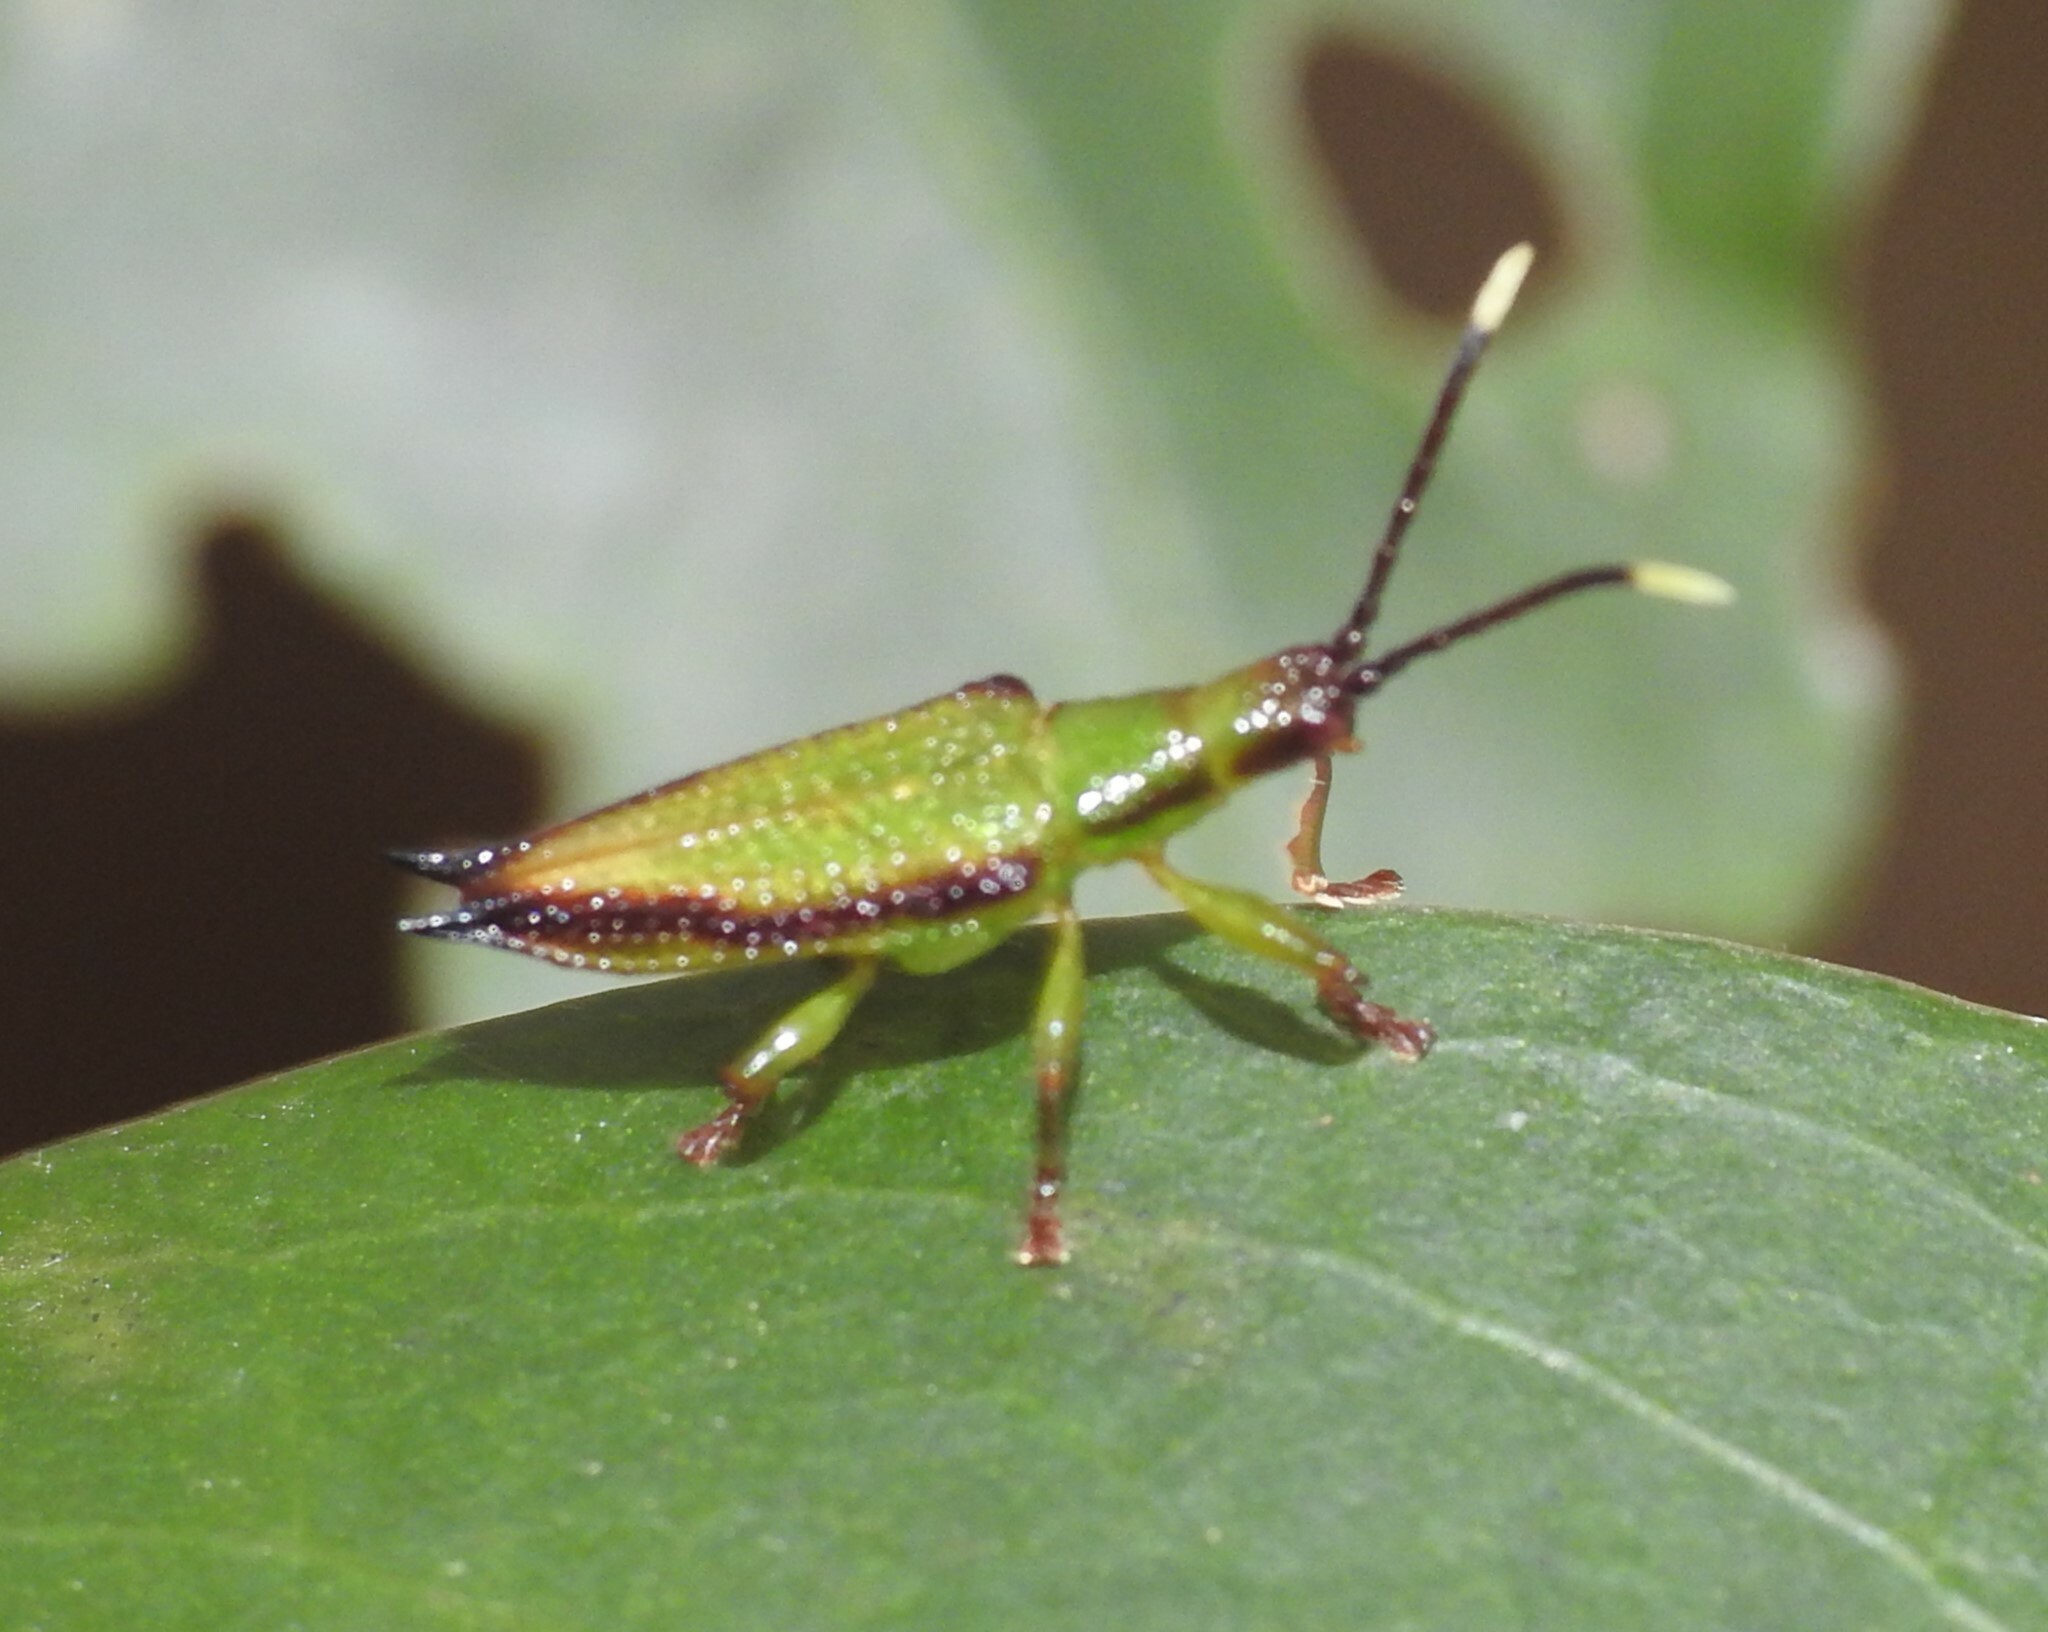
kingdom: Animalia
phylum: Arthropoda
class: Insecta
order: Coleoptera
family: Chrysomelidae
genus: Aproida
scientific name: Aproida balyi
